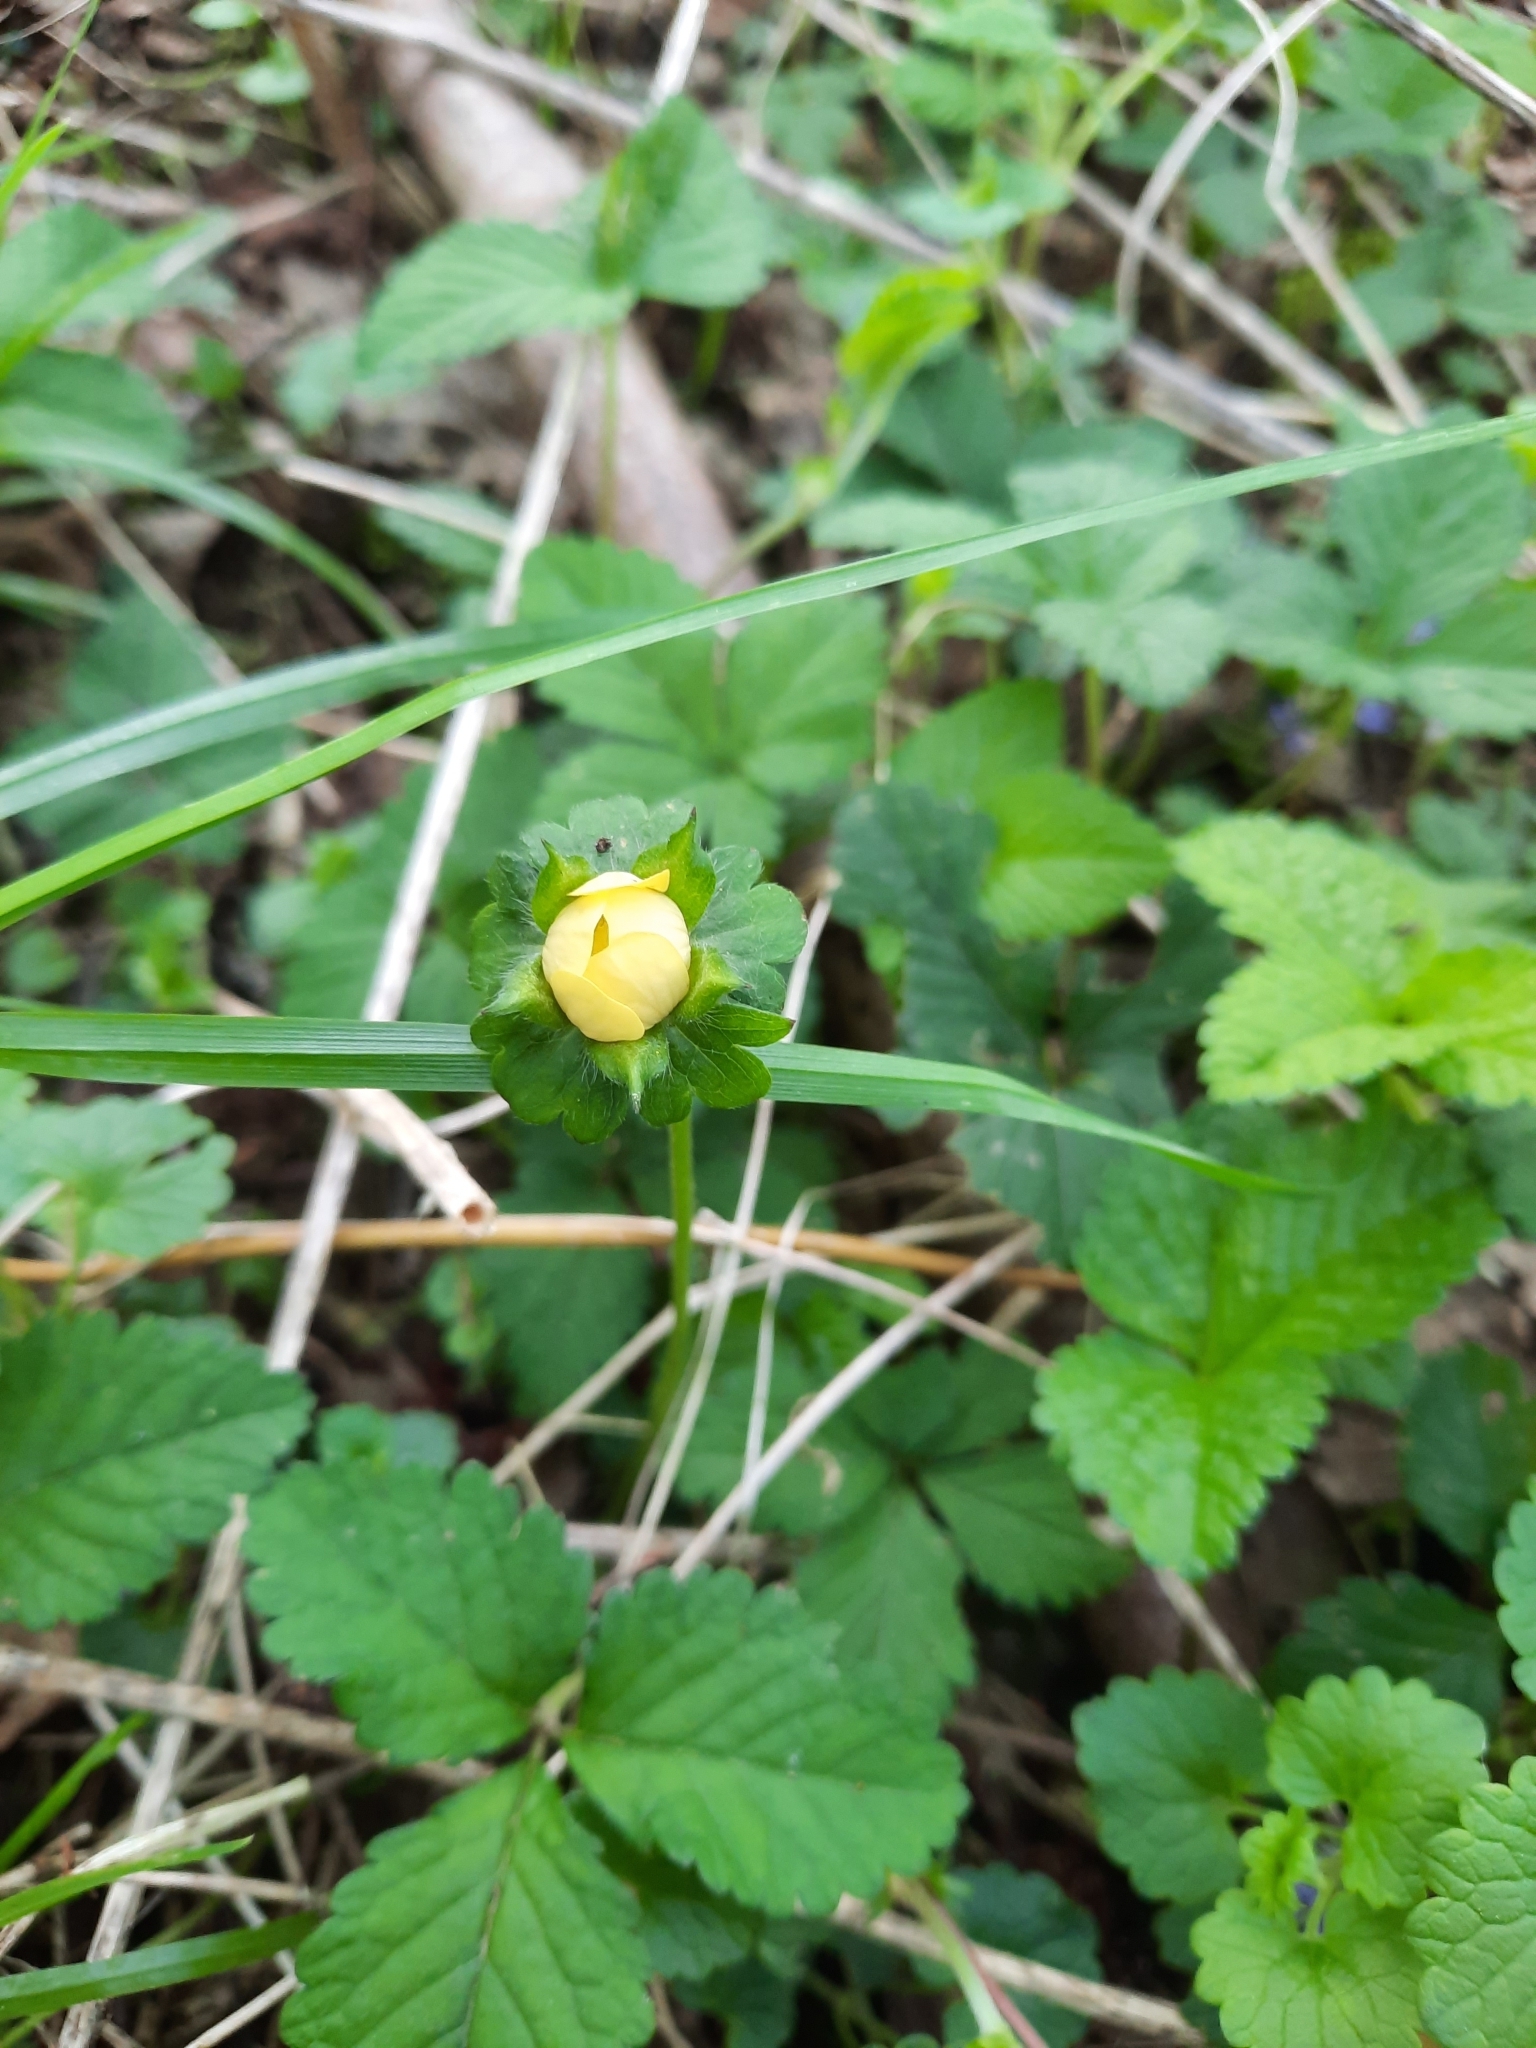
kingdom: Plantae
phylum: Tracheophyta
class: Magnoliopsida
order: Rosales
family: Rosaceae
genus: Potentilla
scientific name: Potentilla indica
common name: Yellow-flowered strawberry
